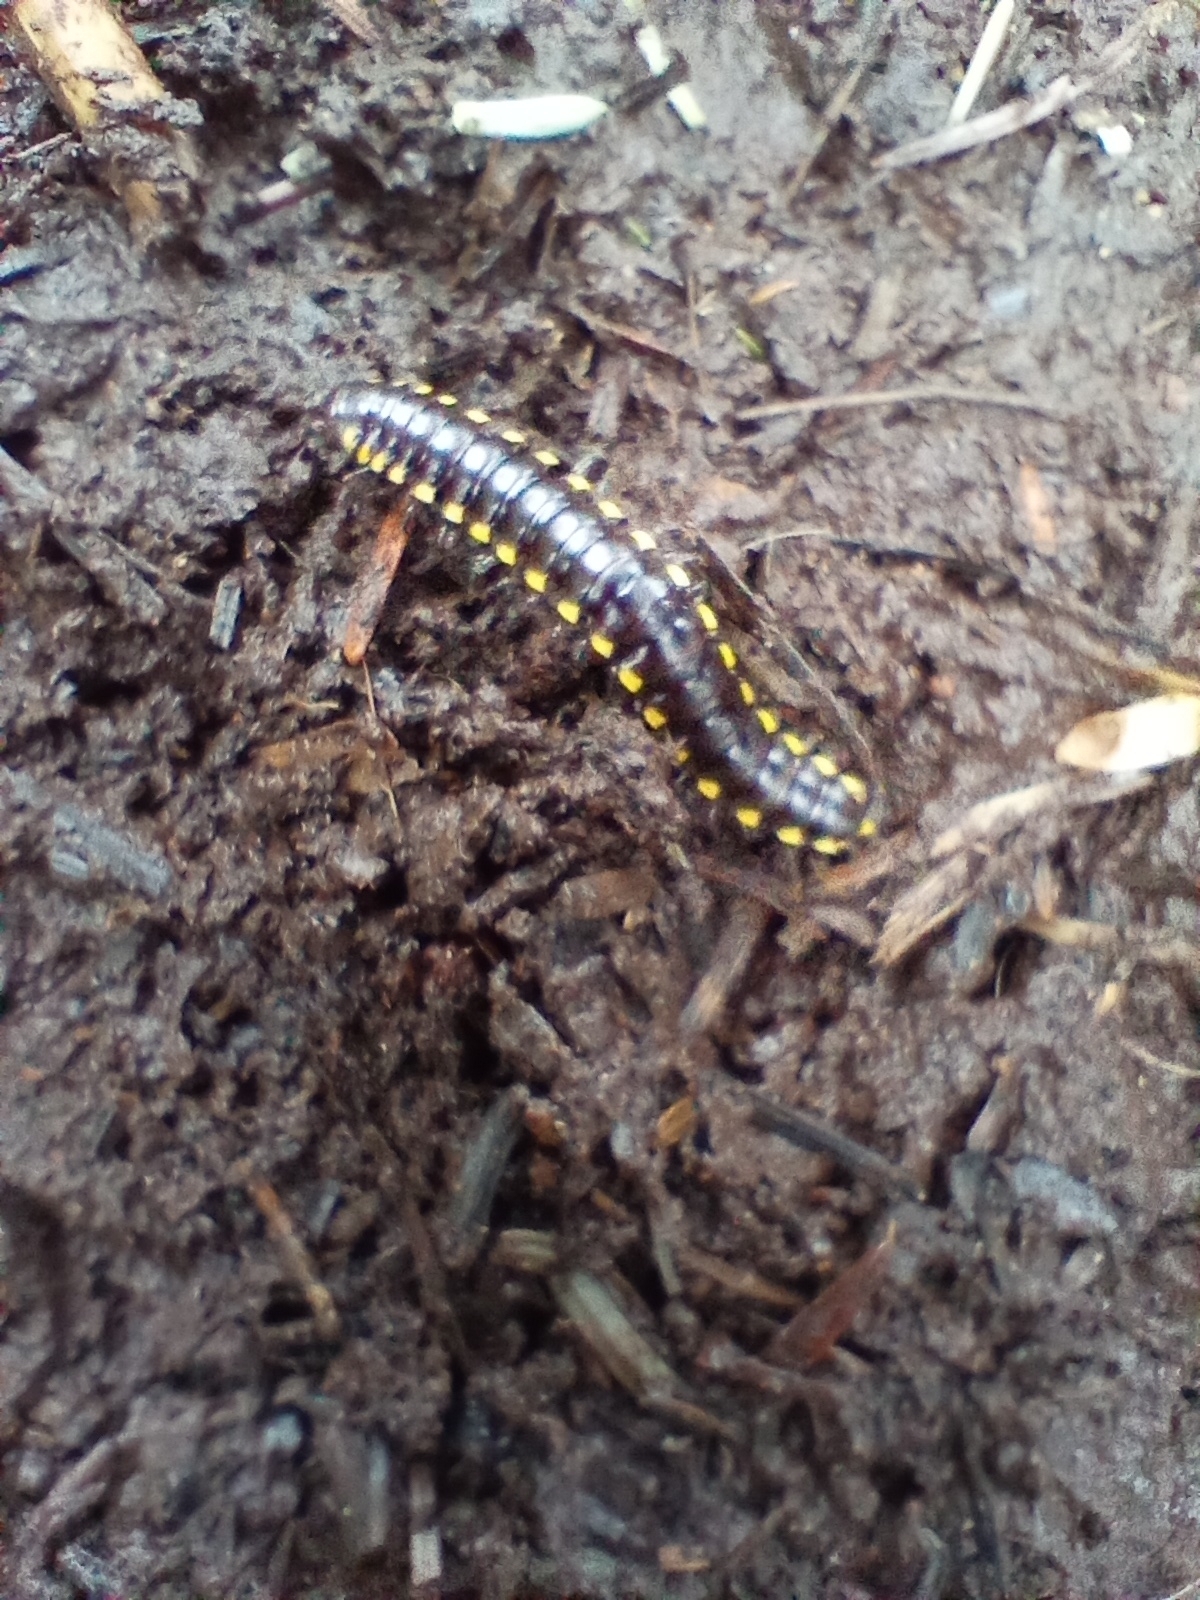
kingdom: Animalia
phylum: Arthropoda
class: Diplopoda
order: Polydesmida
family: Xystodesmidae
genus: Harpaphe
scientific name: Harpaphe haydeniana
